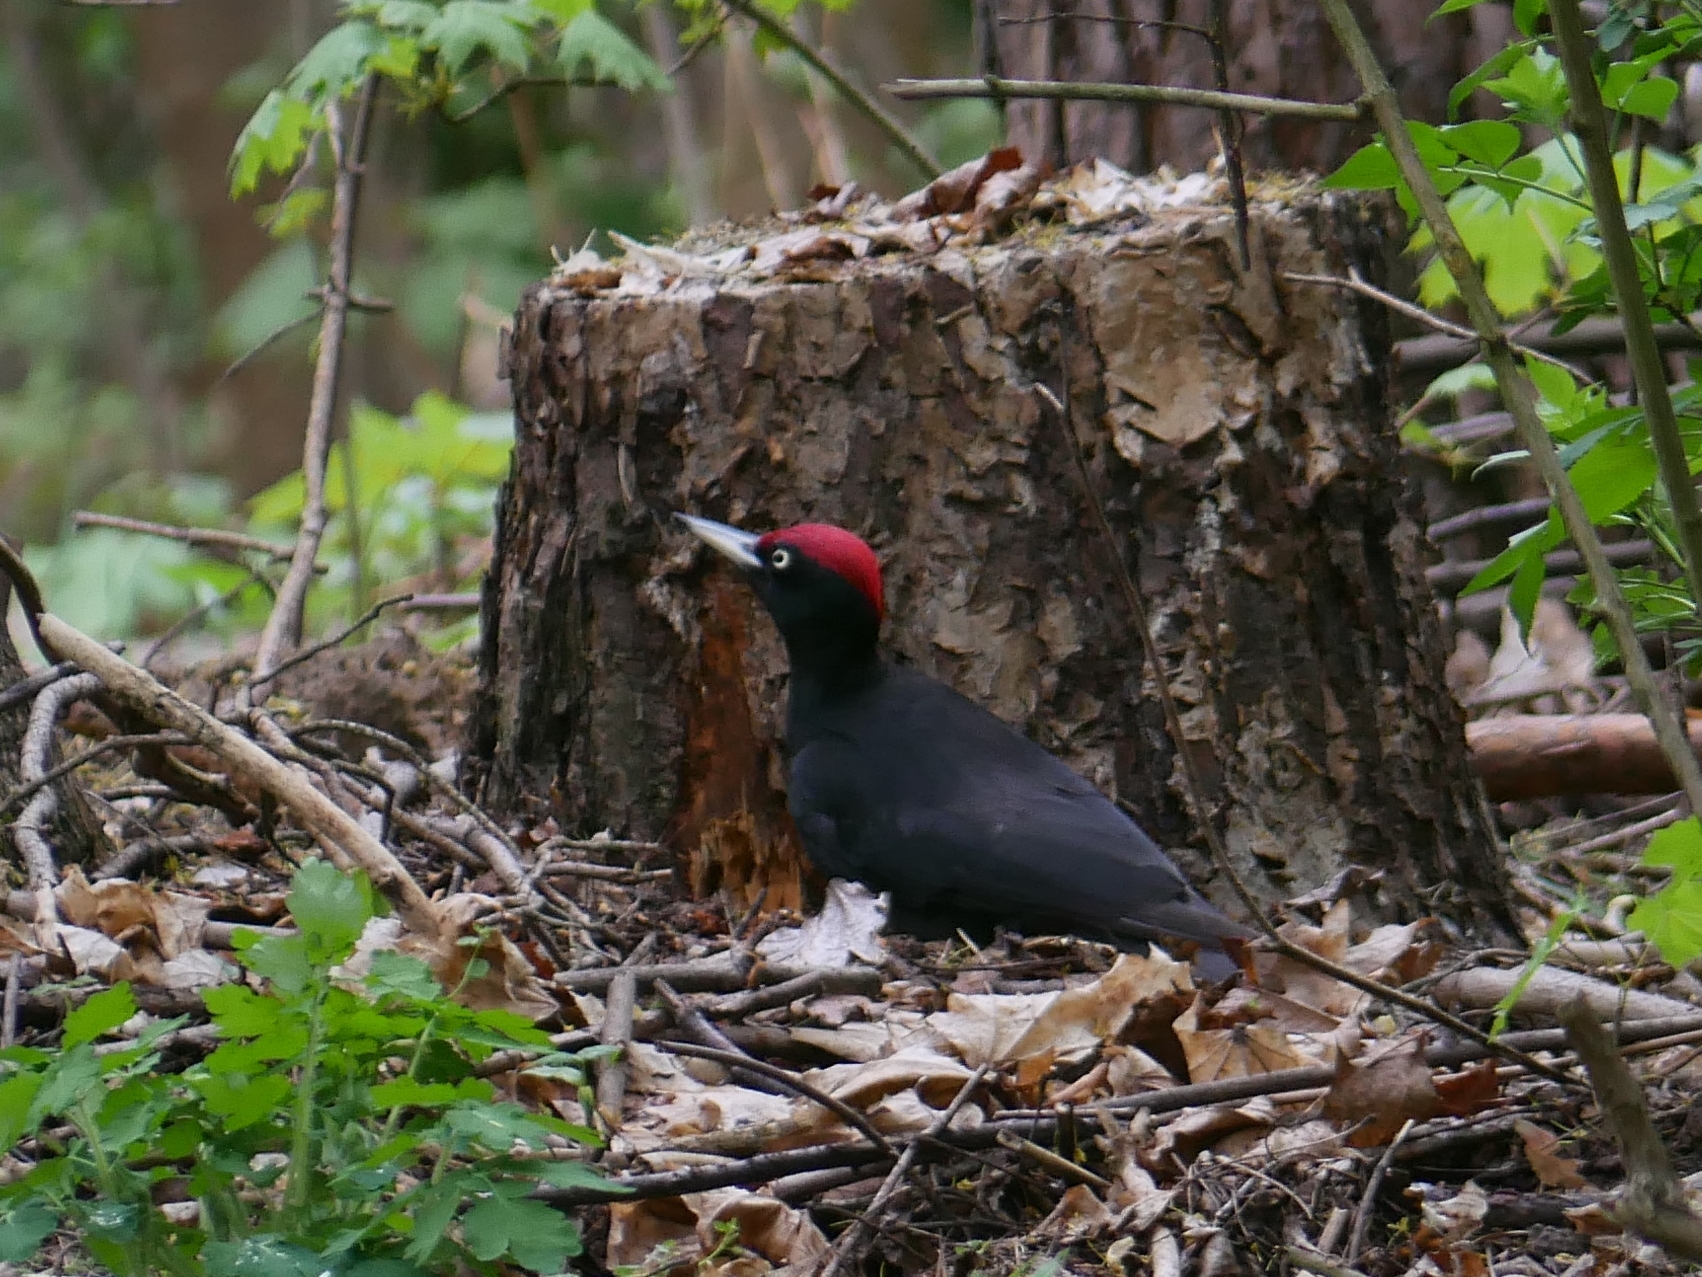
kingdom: Animalia
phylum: Chordata
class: Aves
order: Piciformes
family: Picidae
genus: Dryocopus
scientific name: Dryocopus martius
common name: Black woodpecker
